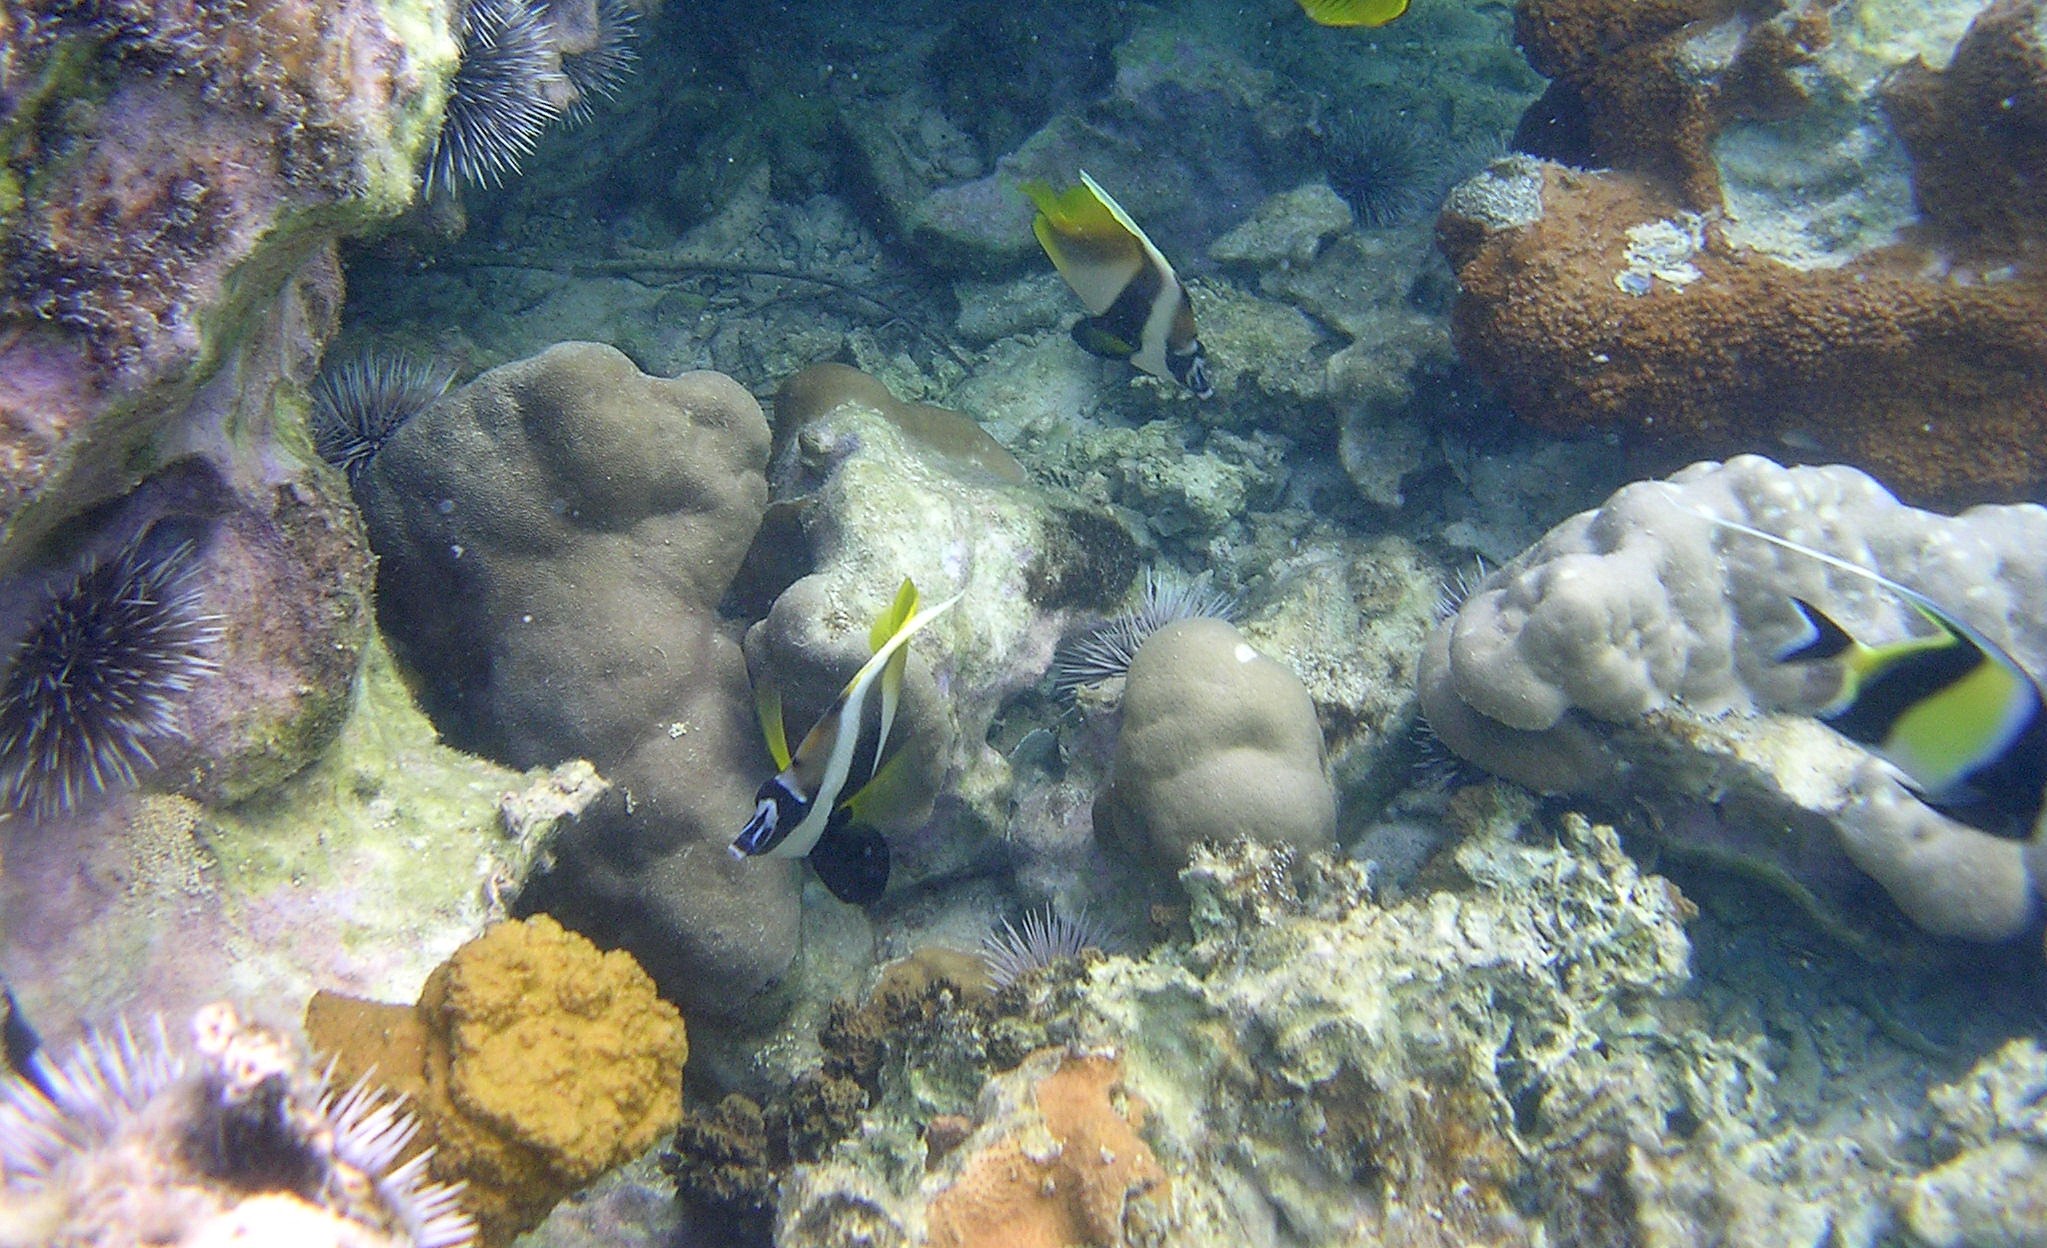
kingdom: Animalia
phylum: Chordata
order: Perciformes
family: Chaetodontidae
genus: Heniochus
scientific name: Heniochus monoceros
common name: Masked bannerfish
